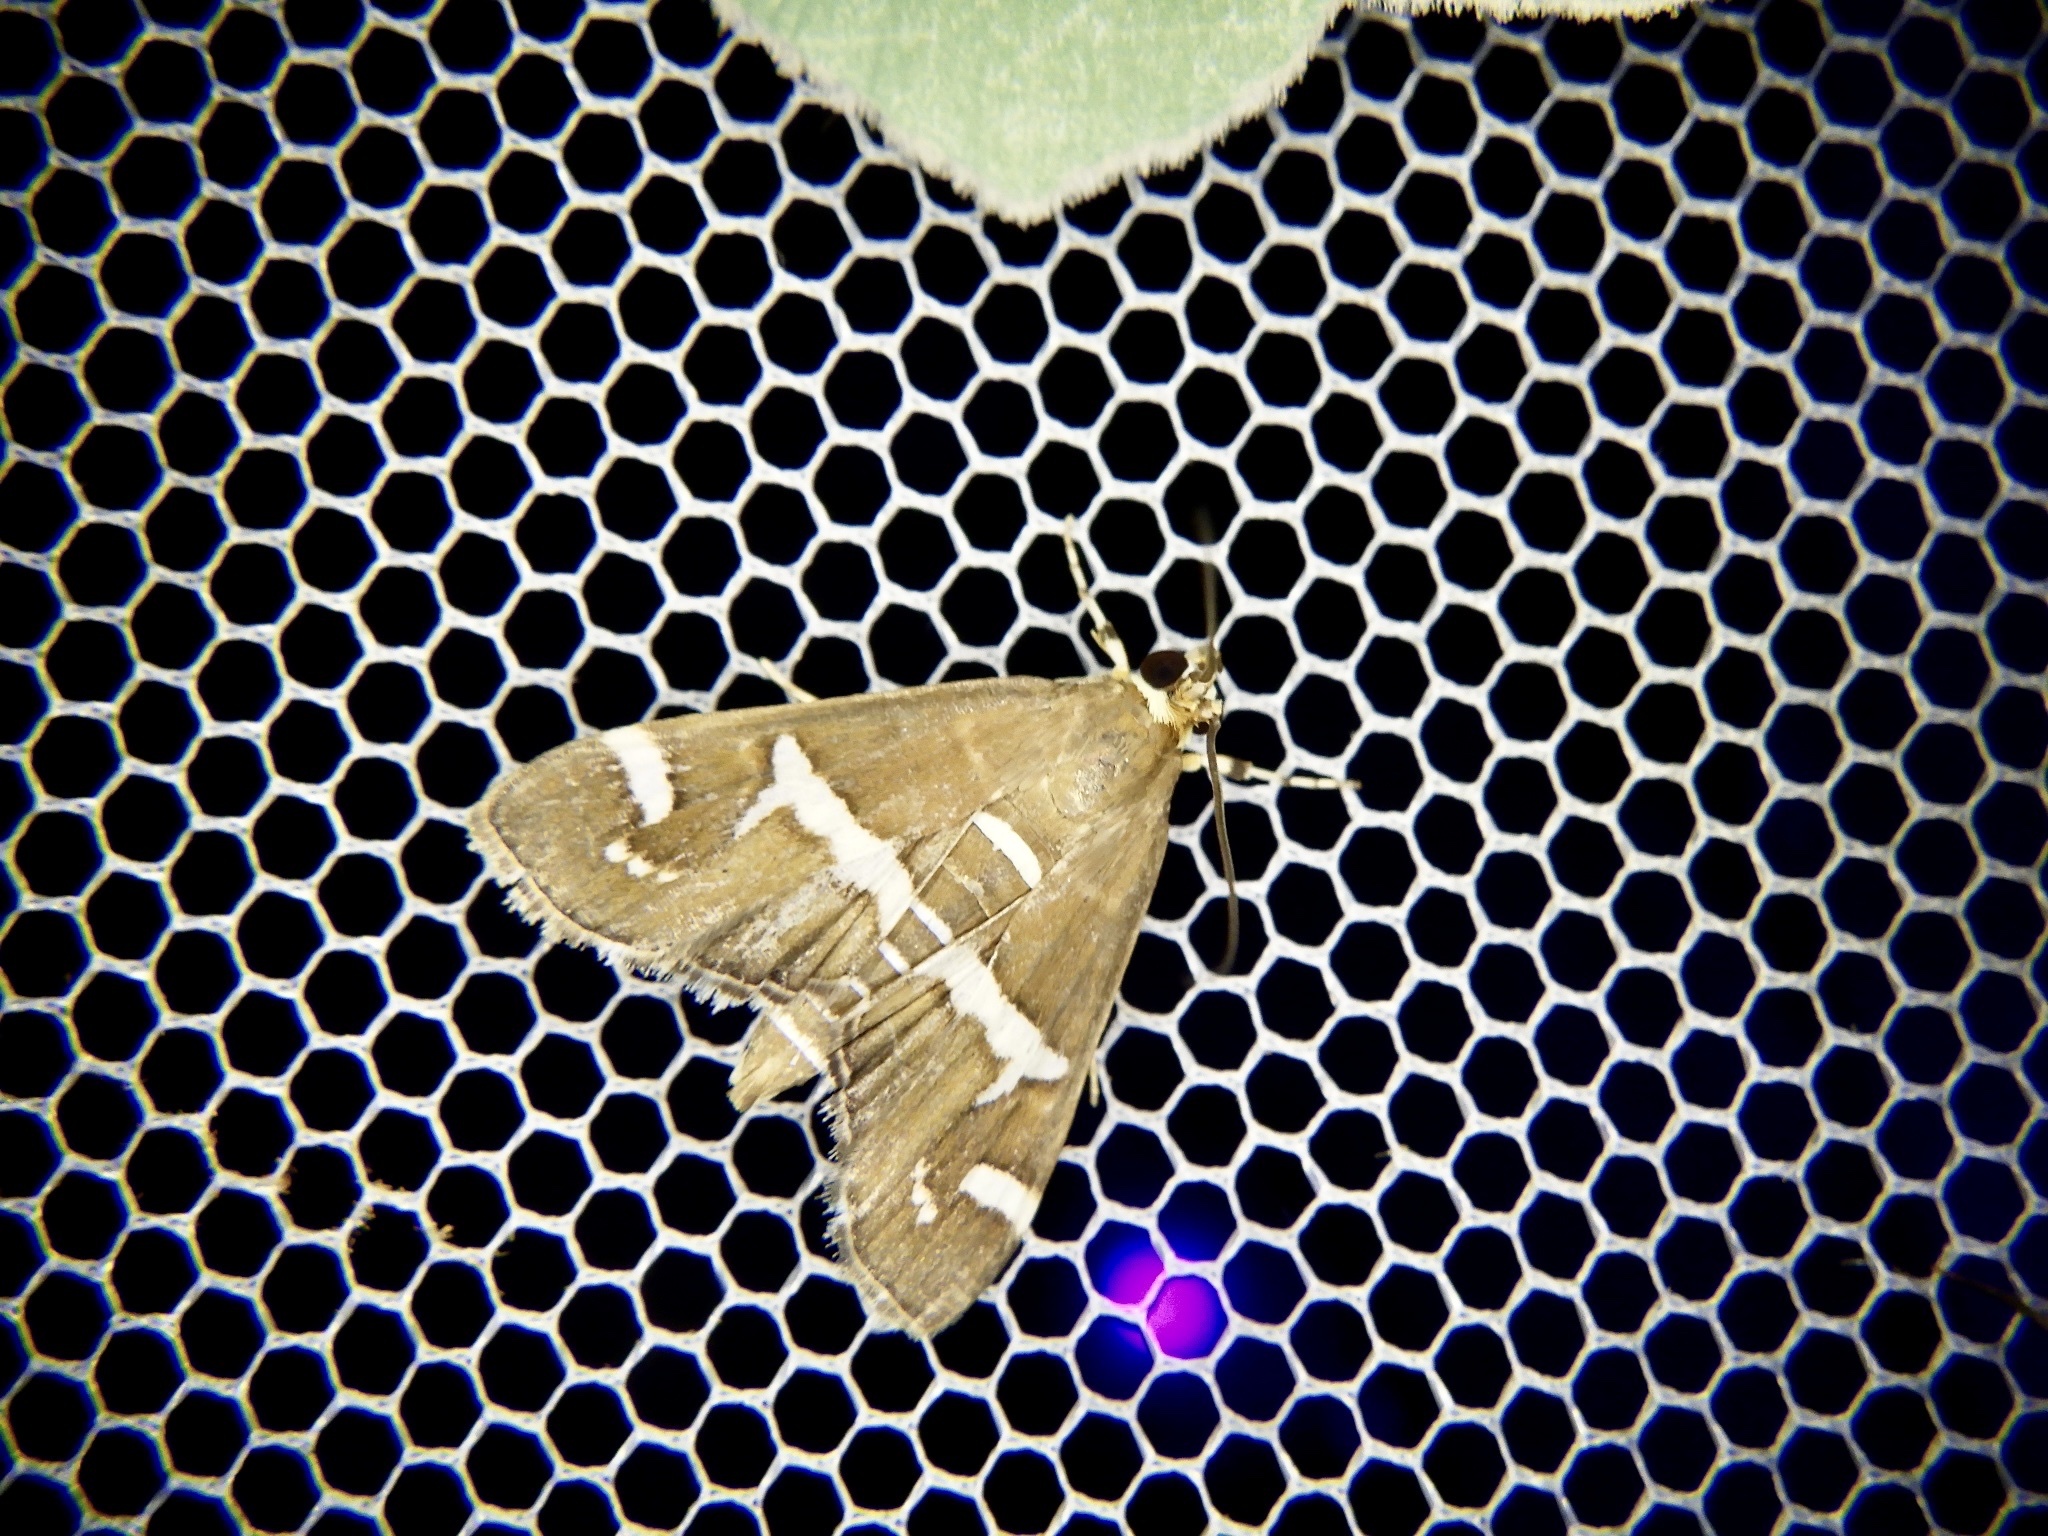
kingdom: Animalia
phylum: Arthropoda
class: Insecta
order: Lepidoptera
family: Crambidae
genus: Spoladea
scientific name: Spoladea recurvalis
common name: Beet webworm moth
